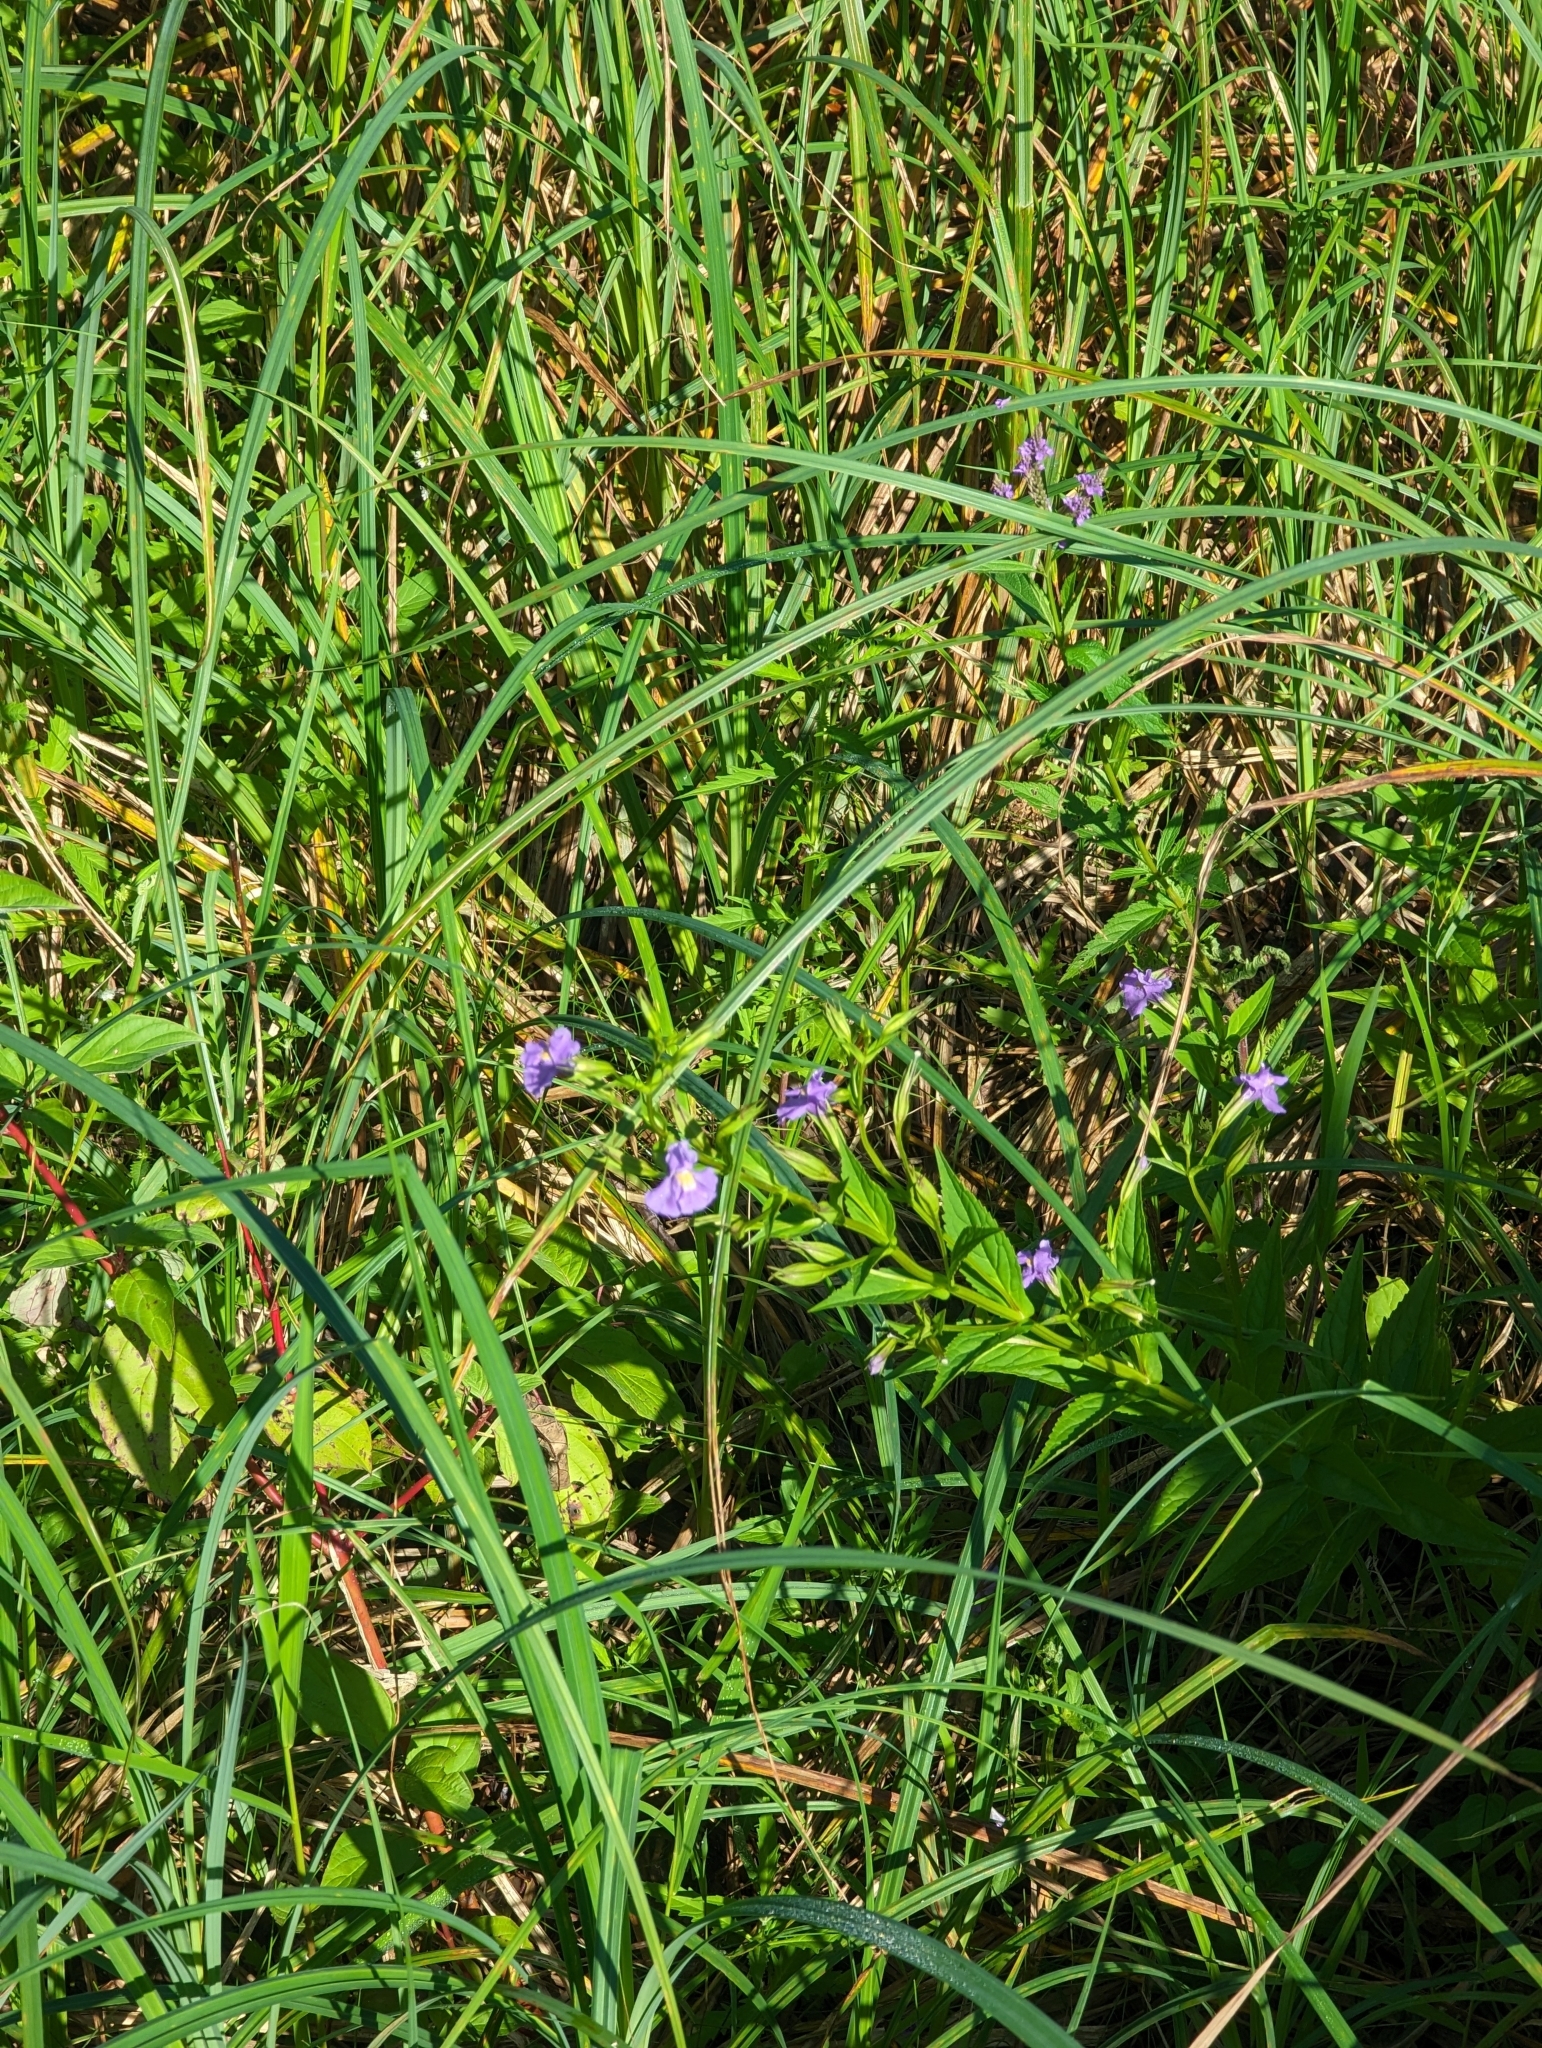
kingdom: Plantae
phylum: Tracheophyta
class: Magnoliopsida
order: Lamiales
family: Phrymaceae
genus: Mimulus
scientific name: Mimulus ringens
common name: Allegheny monkeyflower
